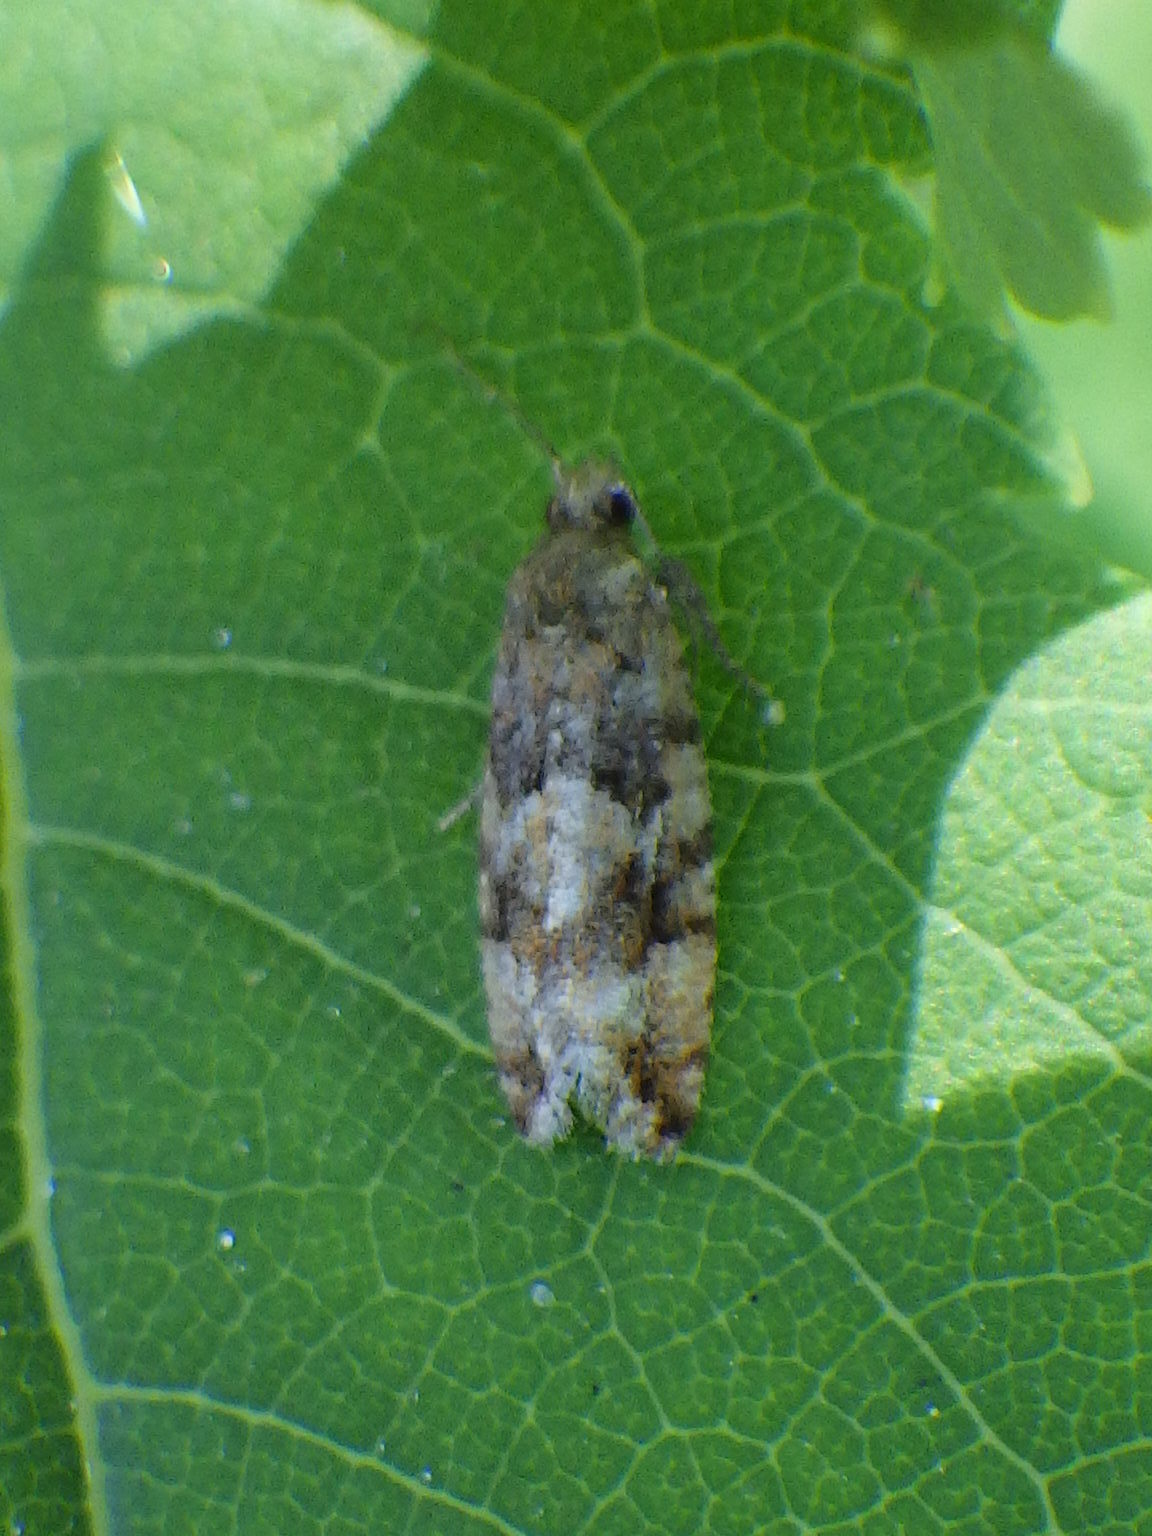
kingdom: Animalia
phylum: Arthropoda
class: Insecta
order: Lepidoptera
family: Tortricidae
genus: Zeiraphera
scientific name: Zeiraphera canadensis
